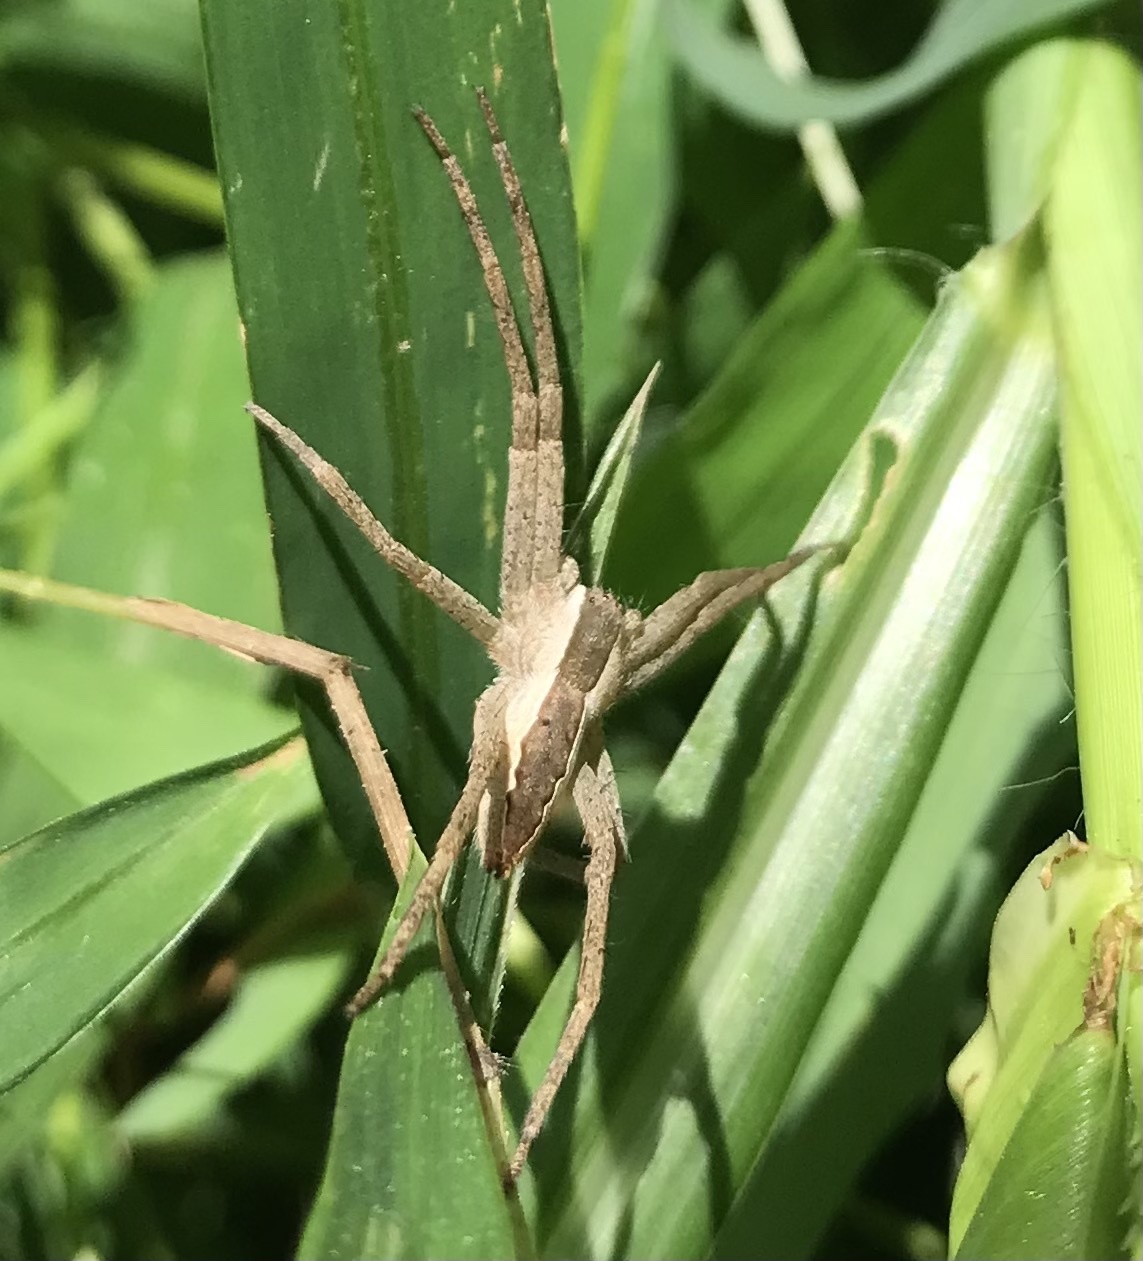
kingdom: Animalia
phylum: Arthropoda
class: Arachnida
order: Araneae
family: Pisauridae
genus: Pisaurina
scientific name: Pisaurina mira
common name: American nursery web spider
